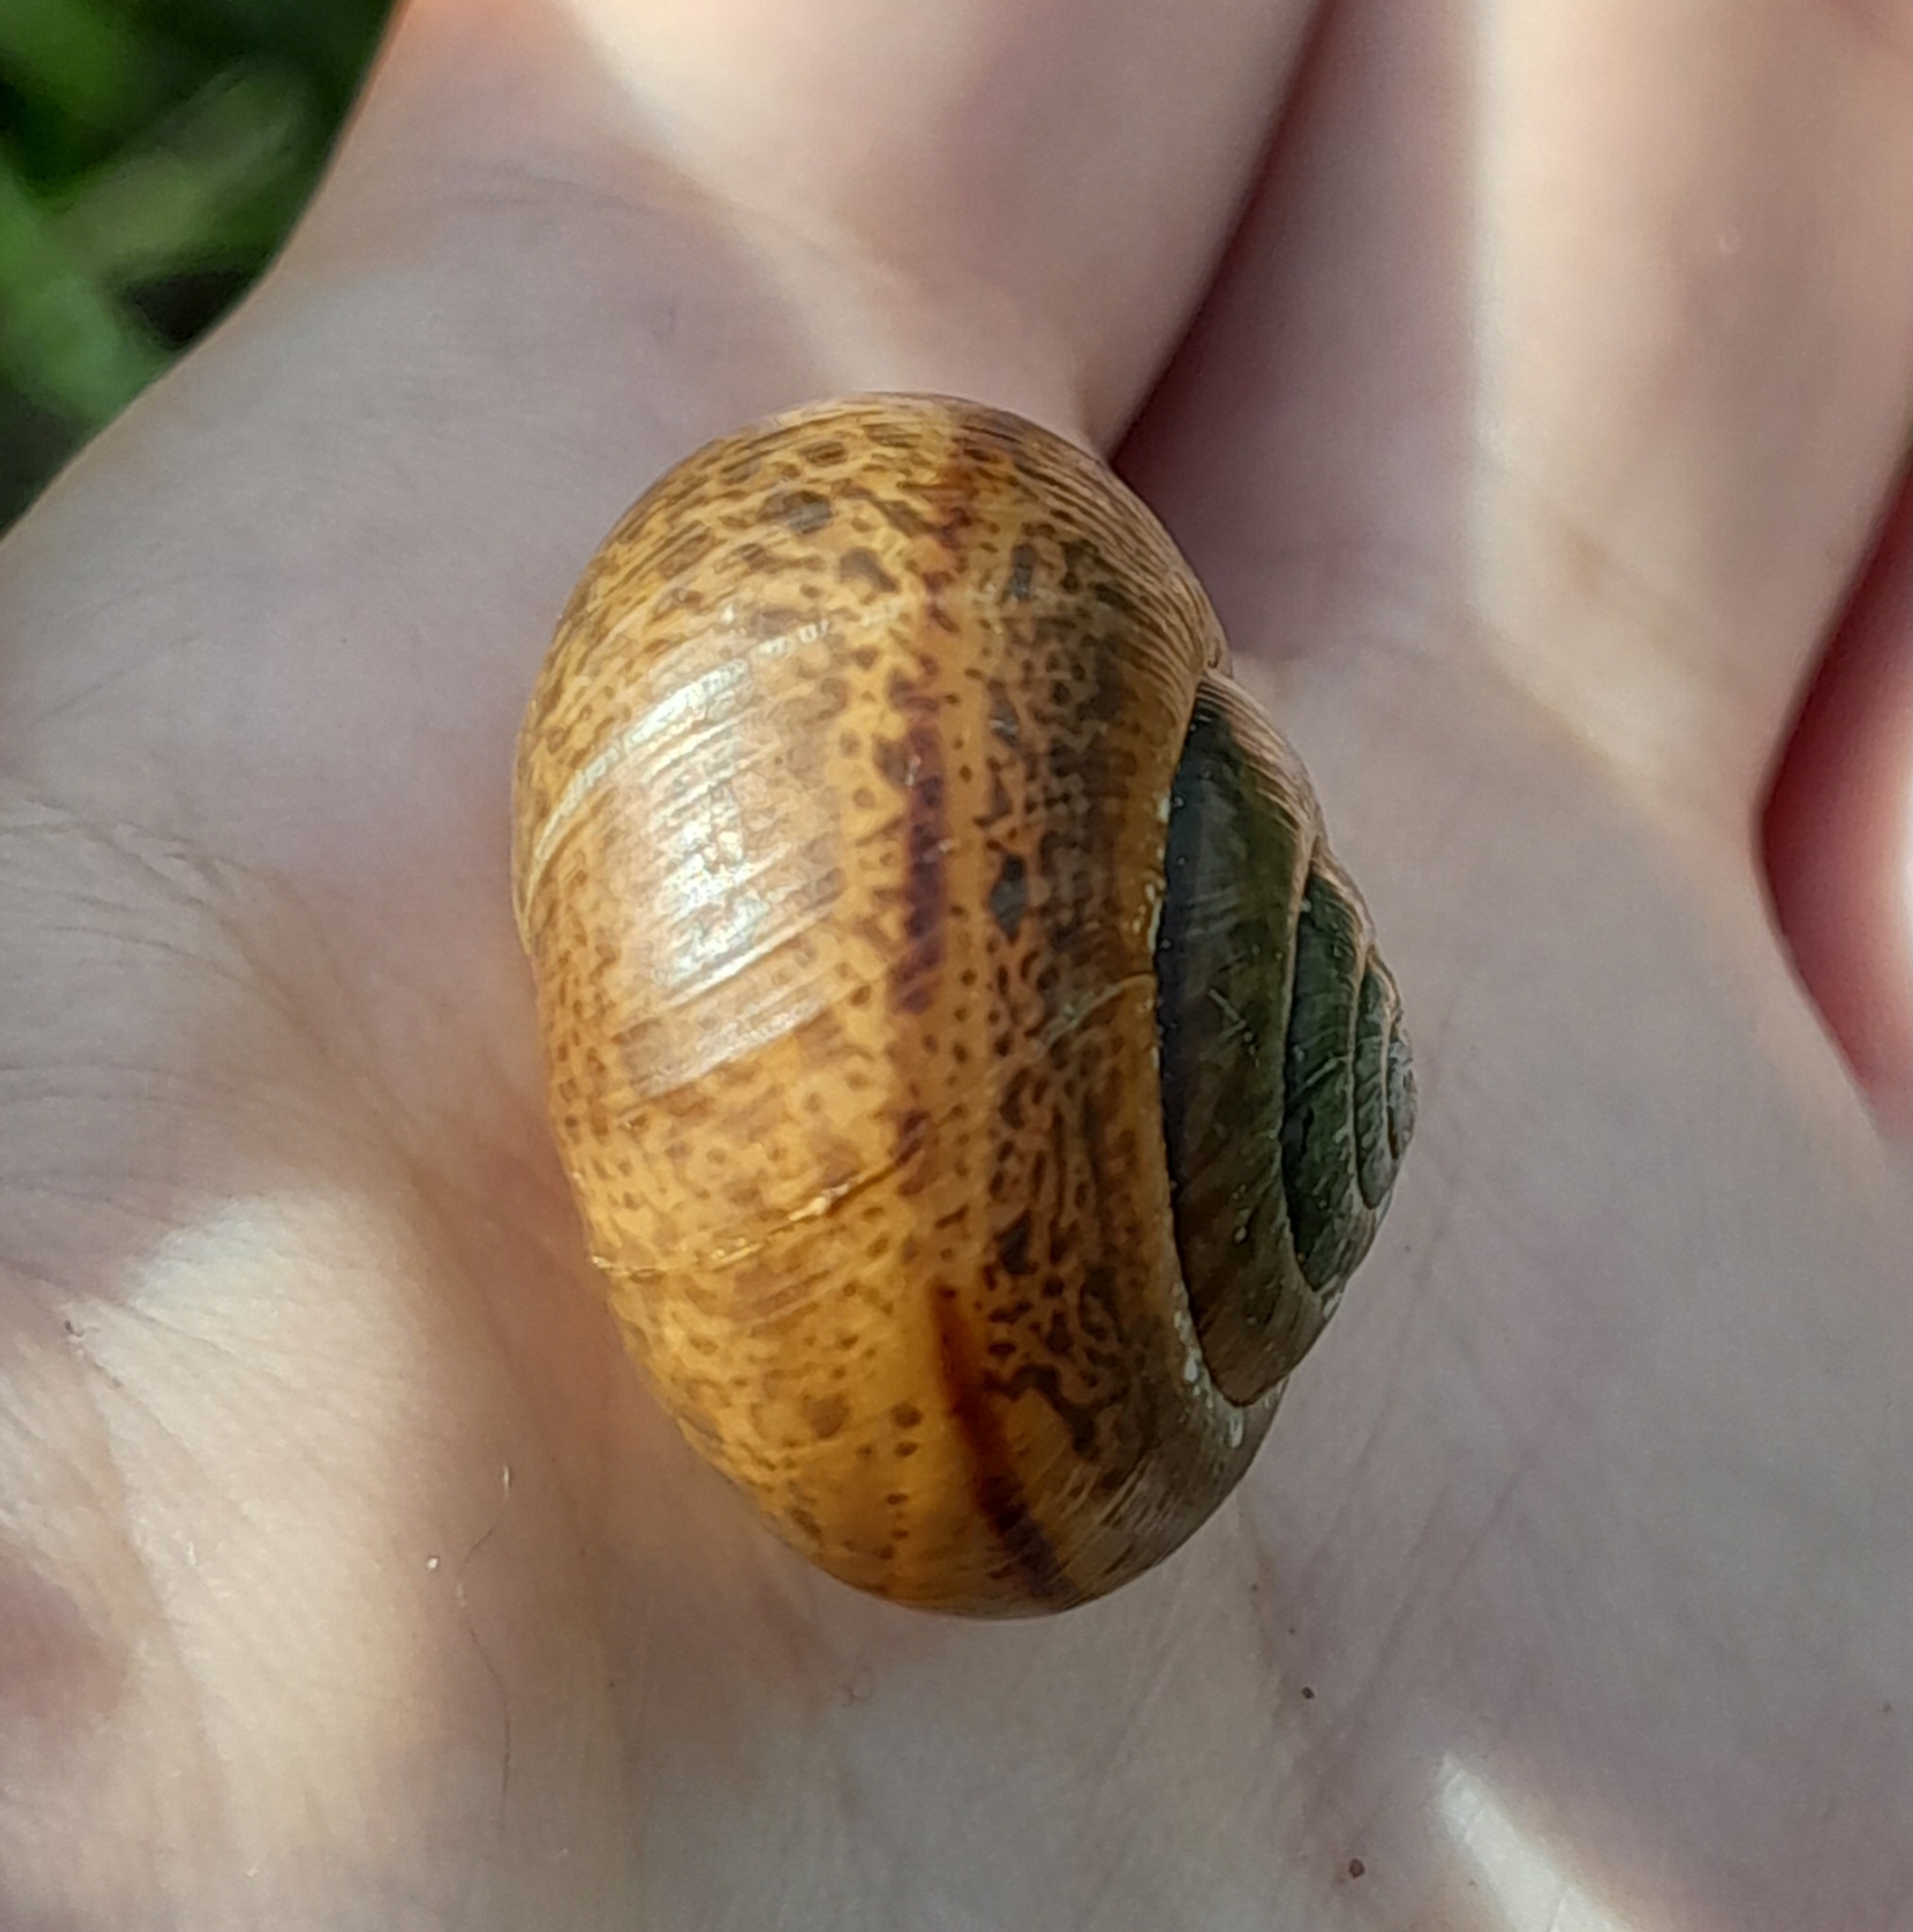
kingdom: Animalia
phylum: Mollusca
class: Gastropoda
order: Stylommatophora
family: Hygromiidae
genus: Portugala
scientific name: Portugala inchoata
